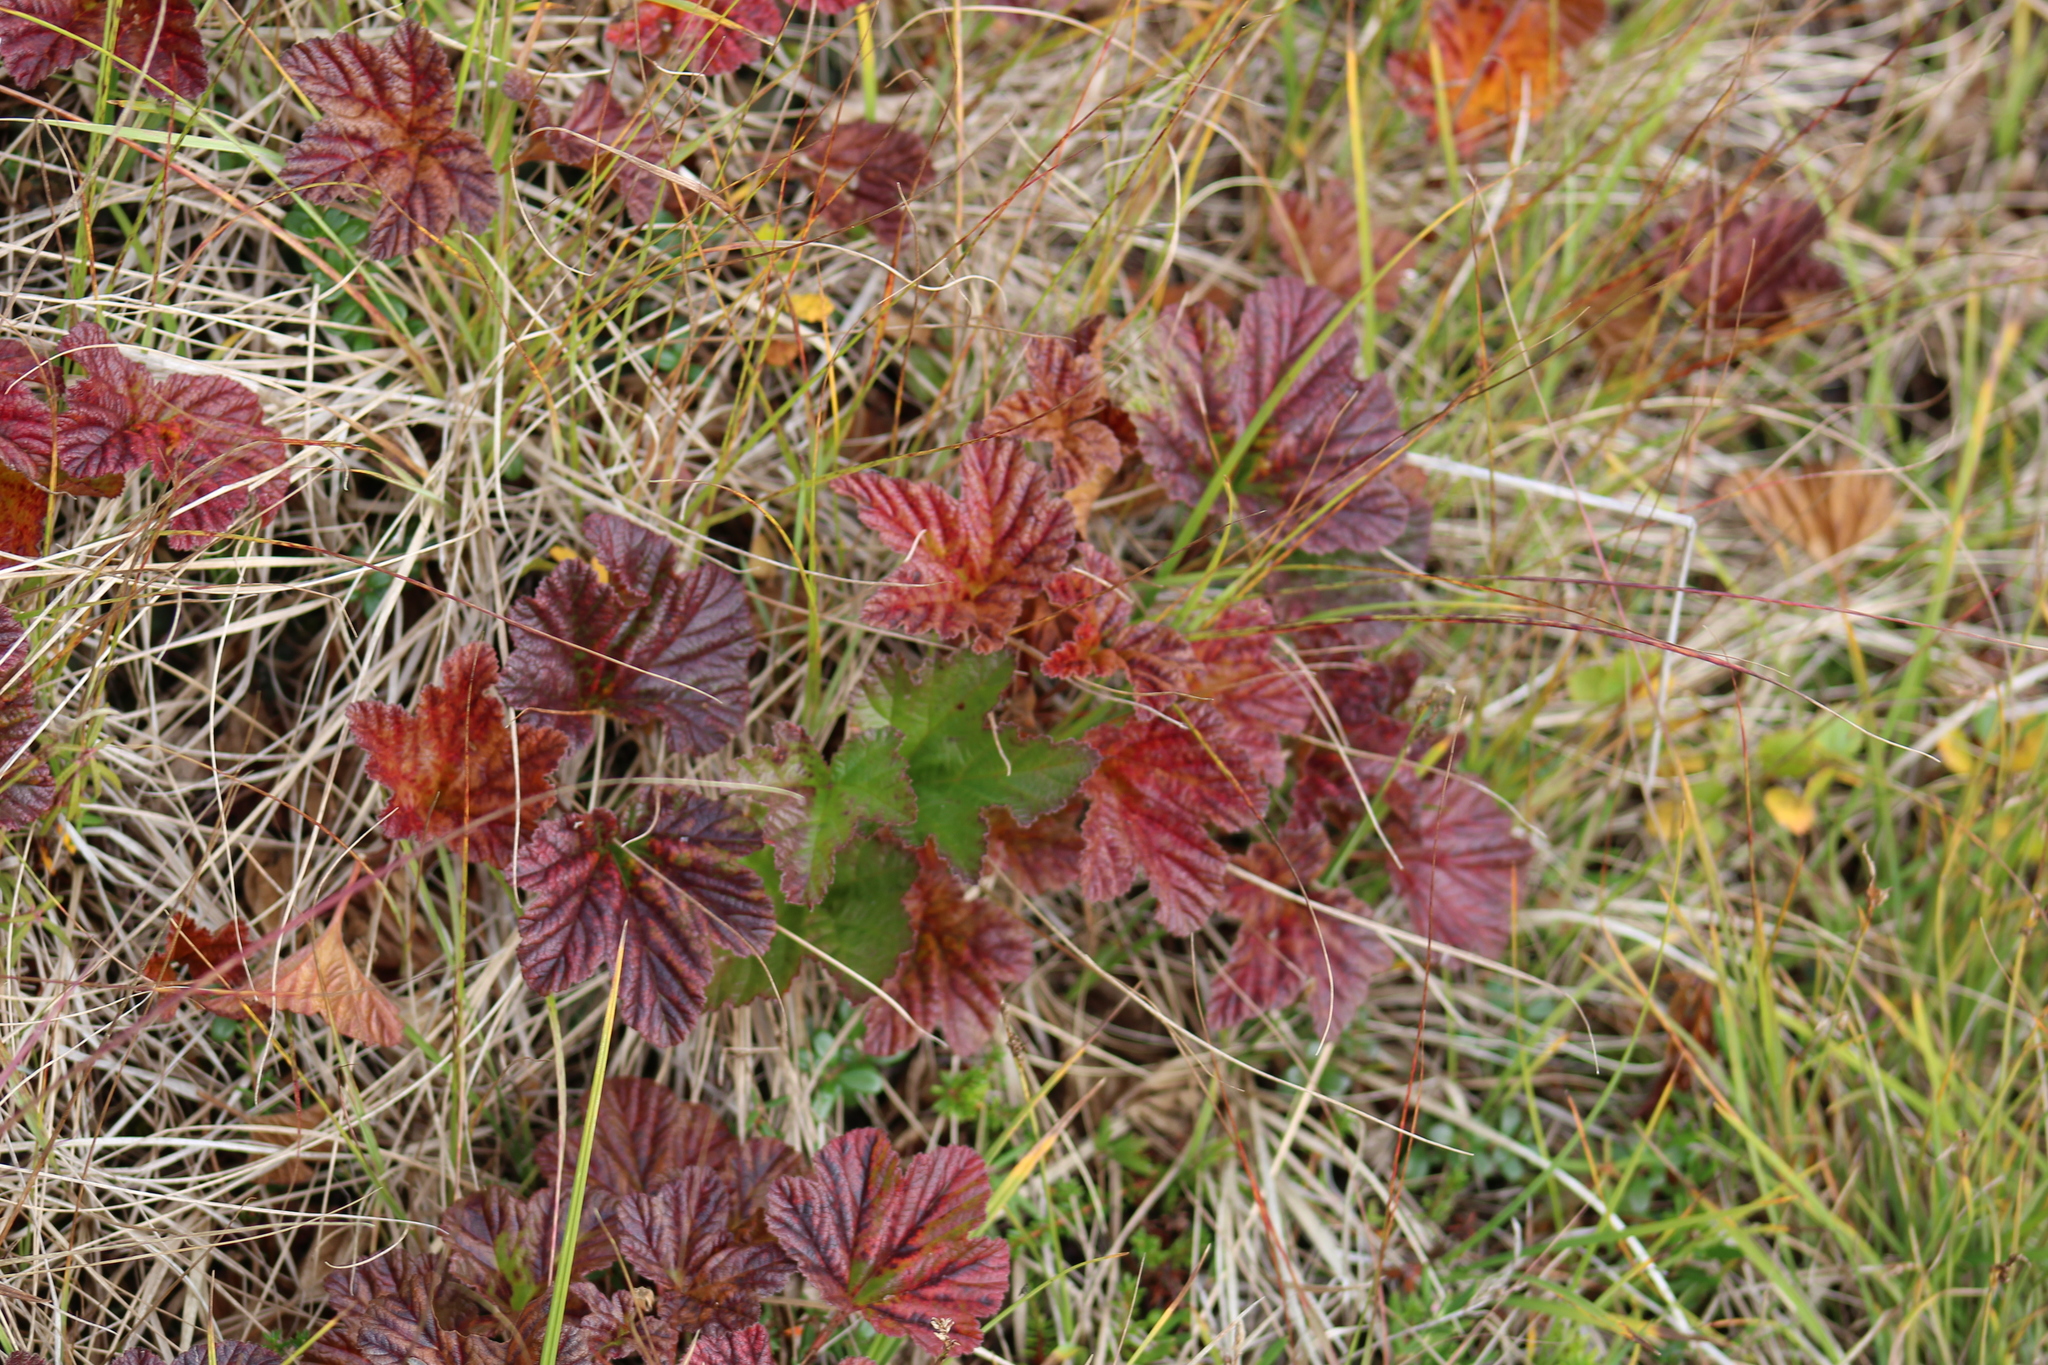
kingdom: Plantae
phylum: Tracheophyta
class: Magnoliopsida
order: Rosales
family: Rosaceae
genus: Rubus
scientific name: Rubus chamaemorus
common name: Cloudberry
